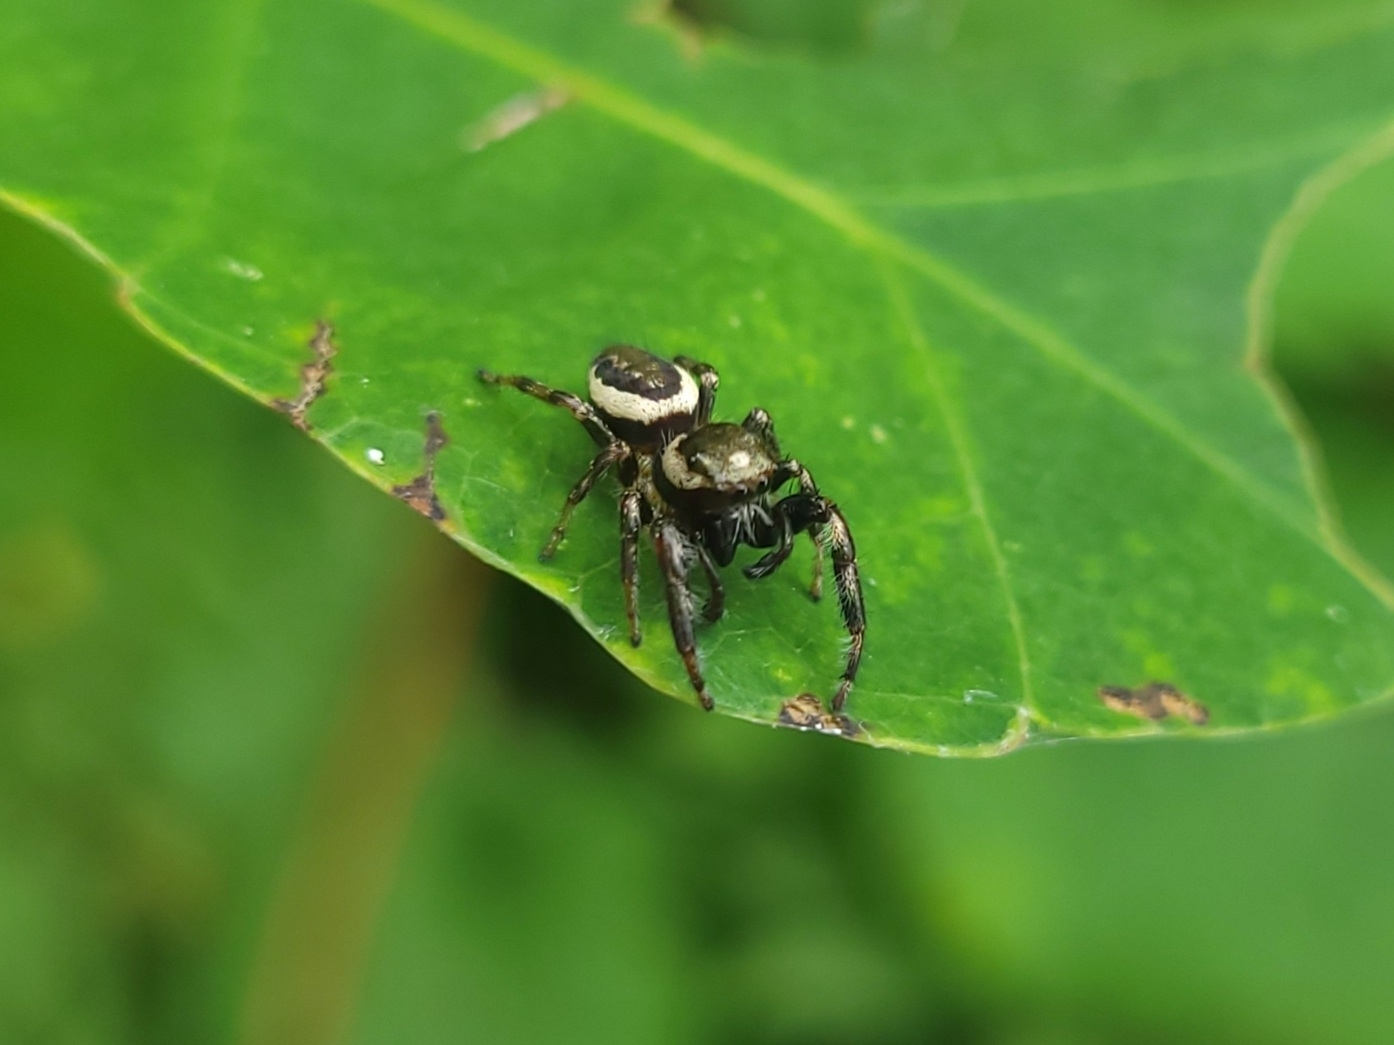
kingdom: Animalia
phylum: Arthropoda
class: Arachnida
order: Araneae
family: Salticidae
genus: Eris
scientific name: Eris militaris
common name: Bronze jumper
